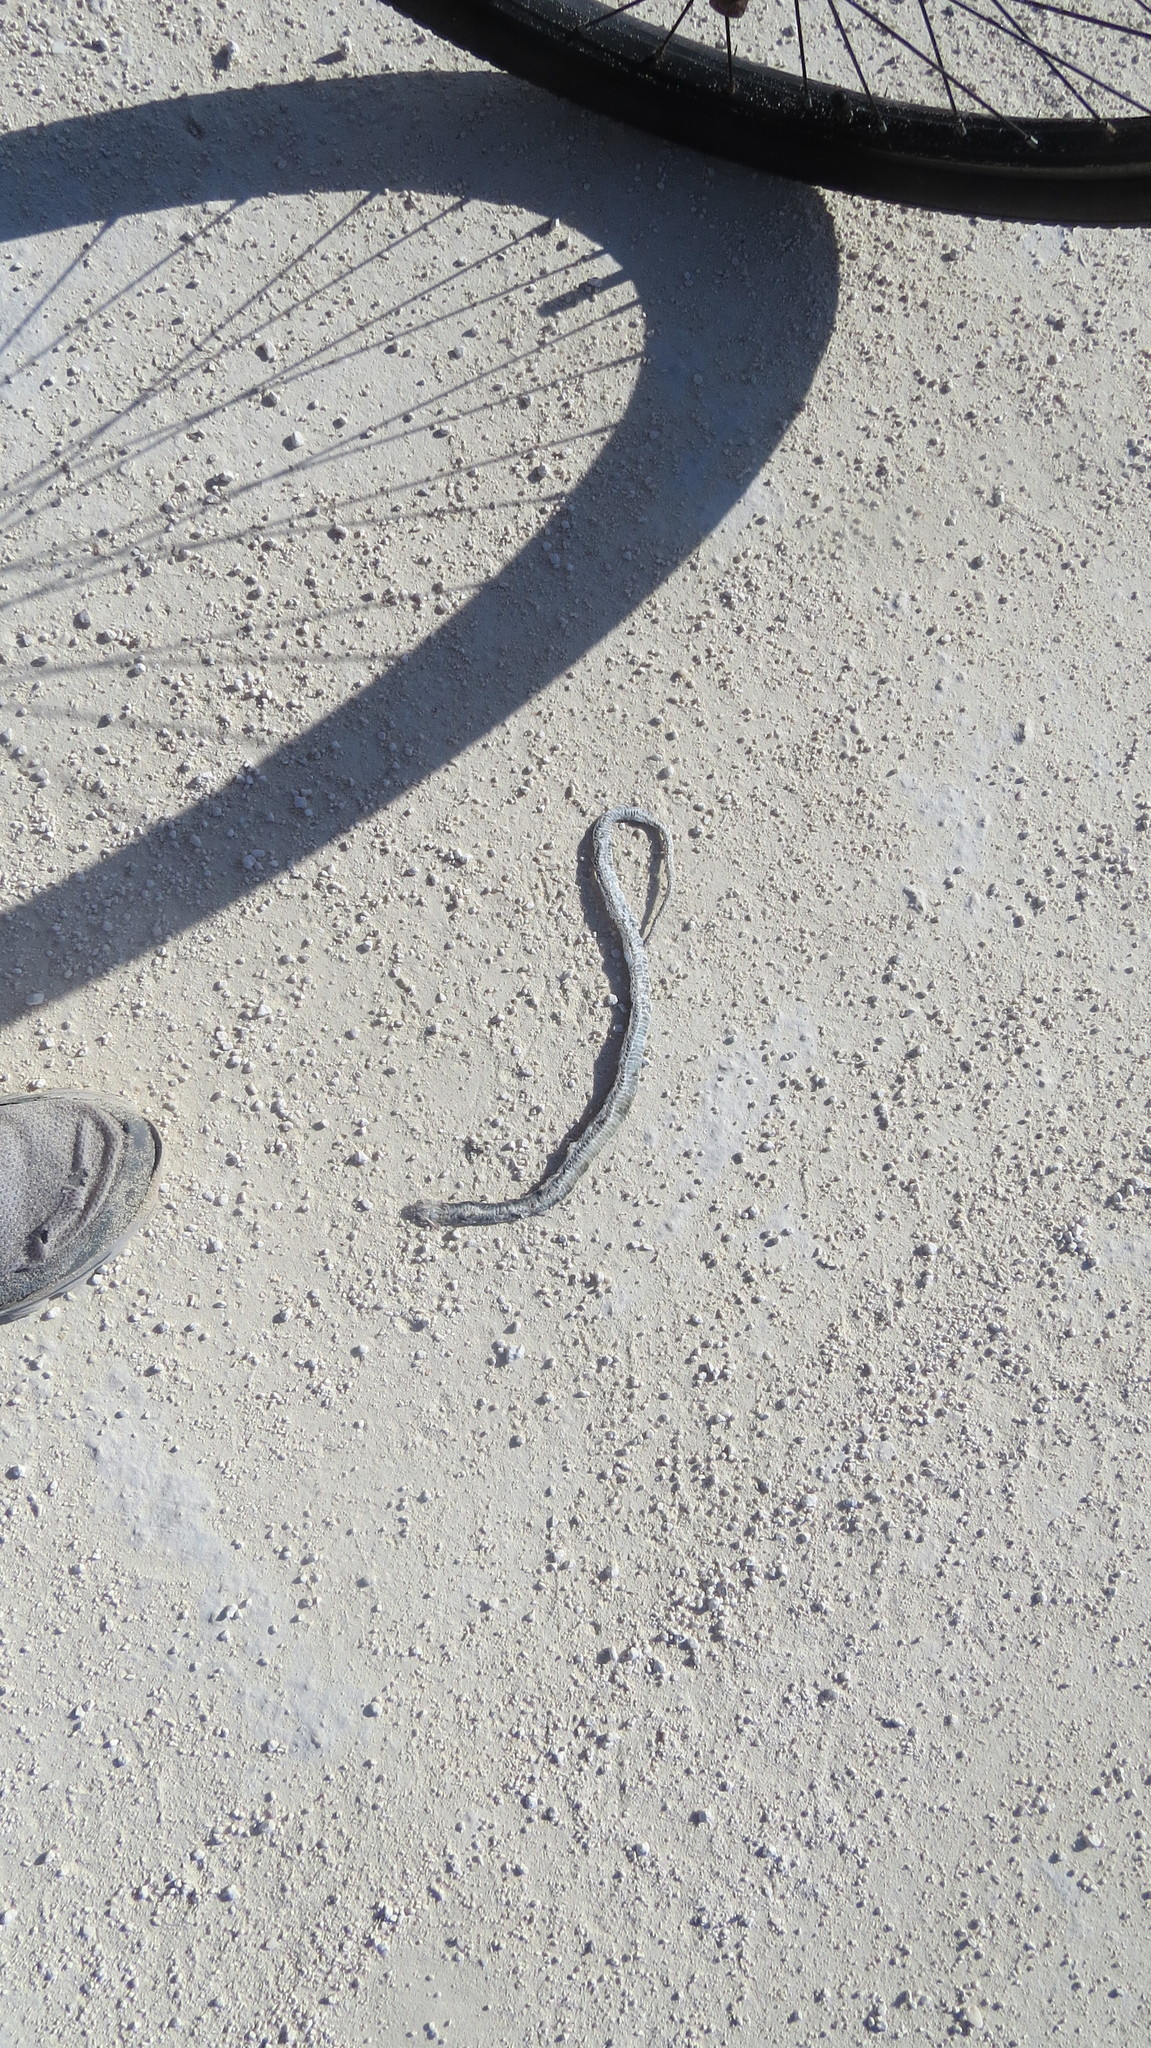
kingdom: Animalia
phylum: Chordata
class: Squamata
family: Colubridae
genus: Thamnophis
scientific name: Thamnophis proximus
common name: Western ribbon snake
